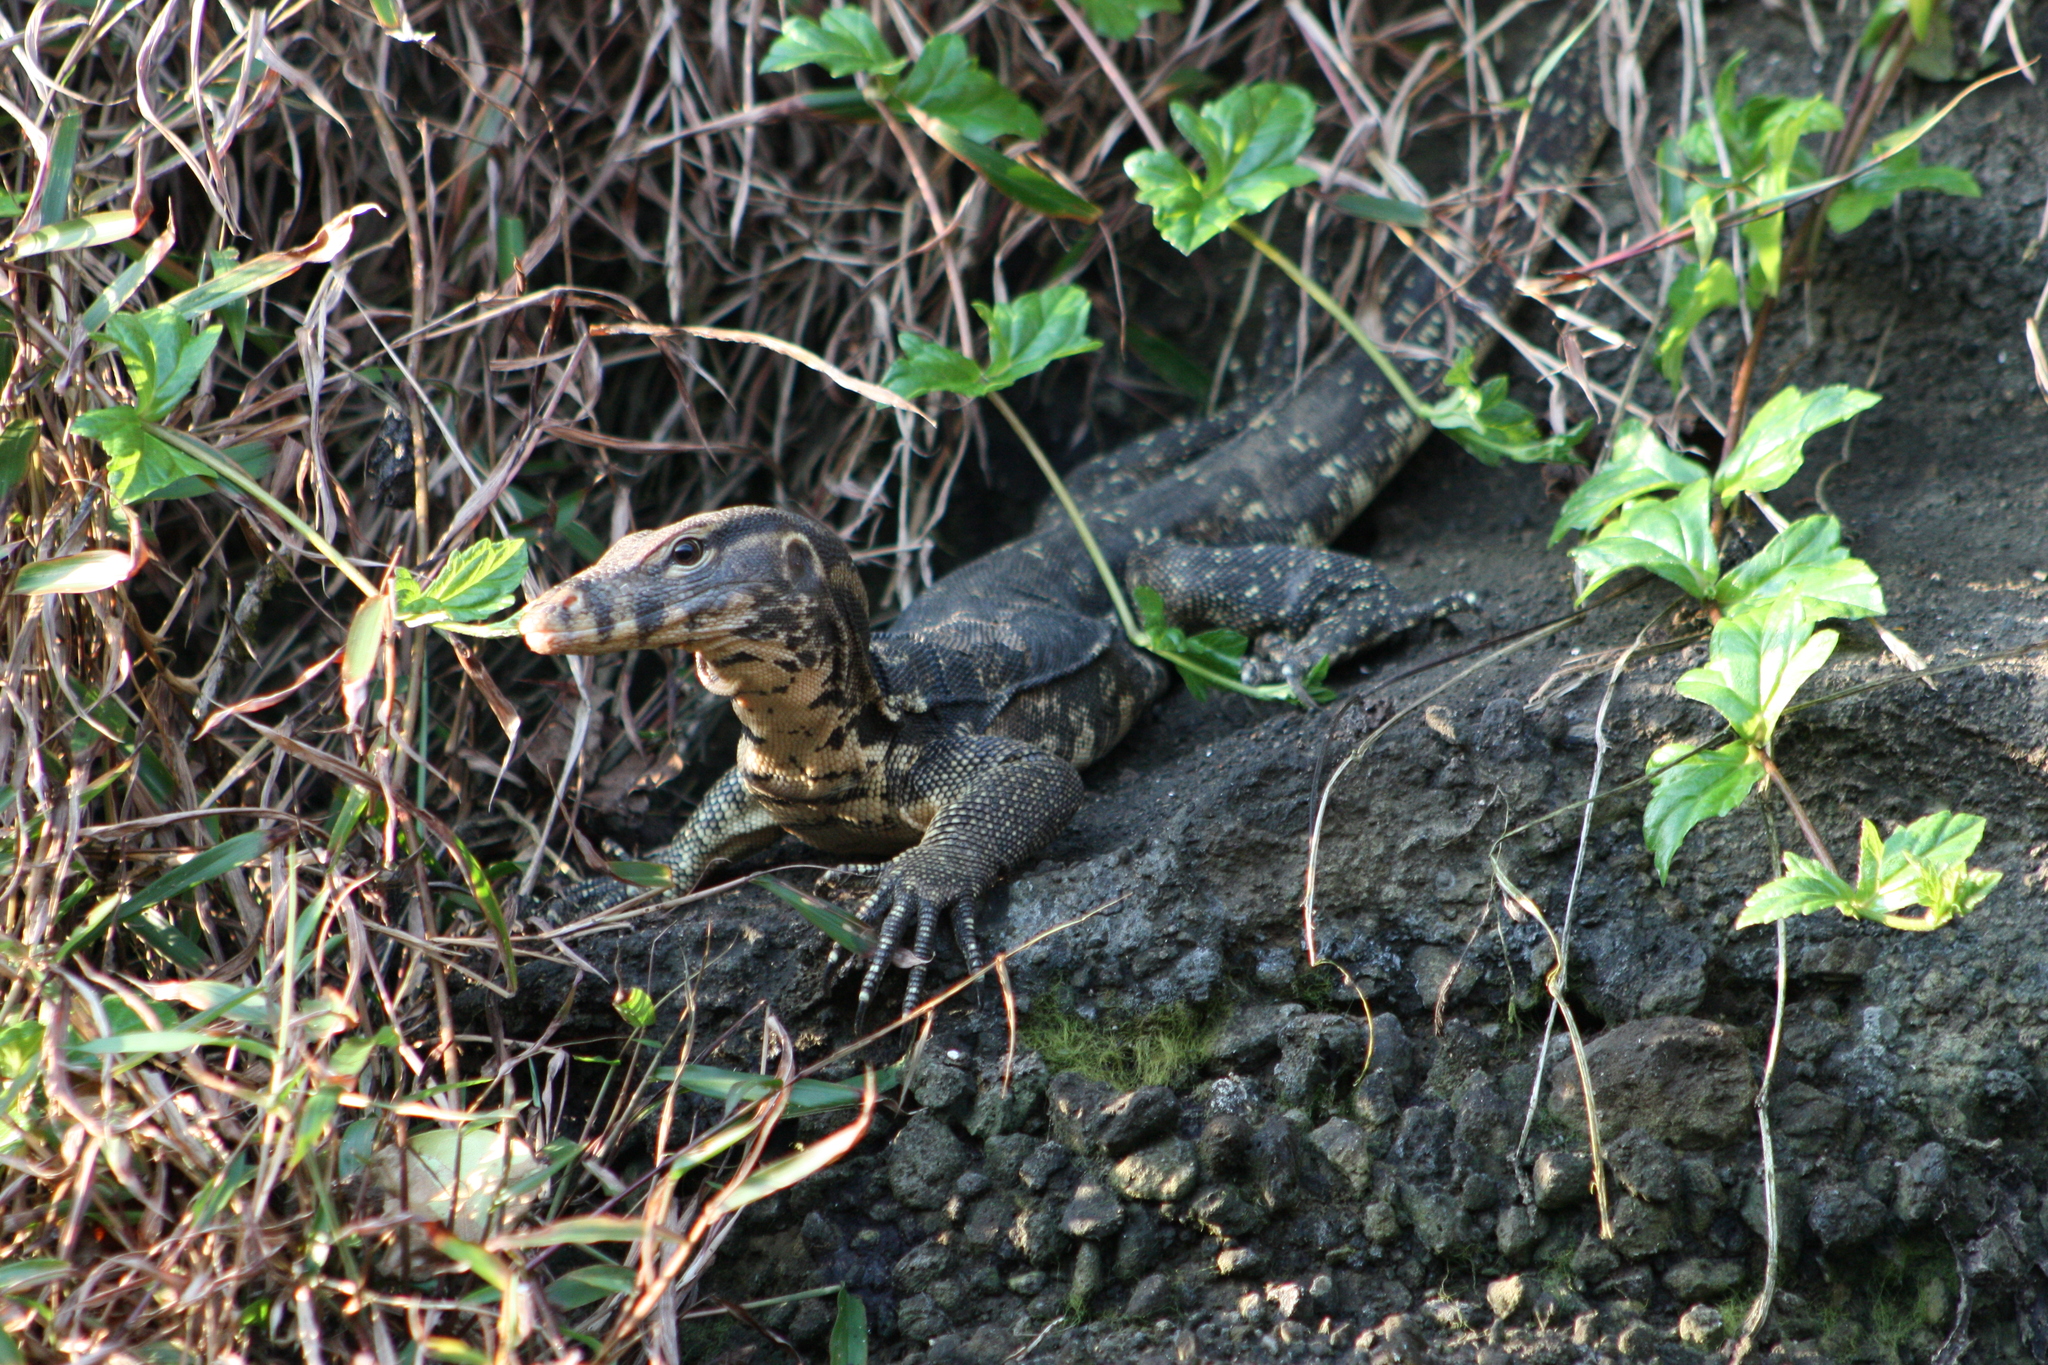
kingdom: Animalia
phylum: Chordata
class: Squamata
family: Varanidae
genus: Varanus
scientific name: Varanus salvator
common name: Common water monitor
